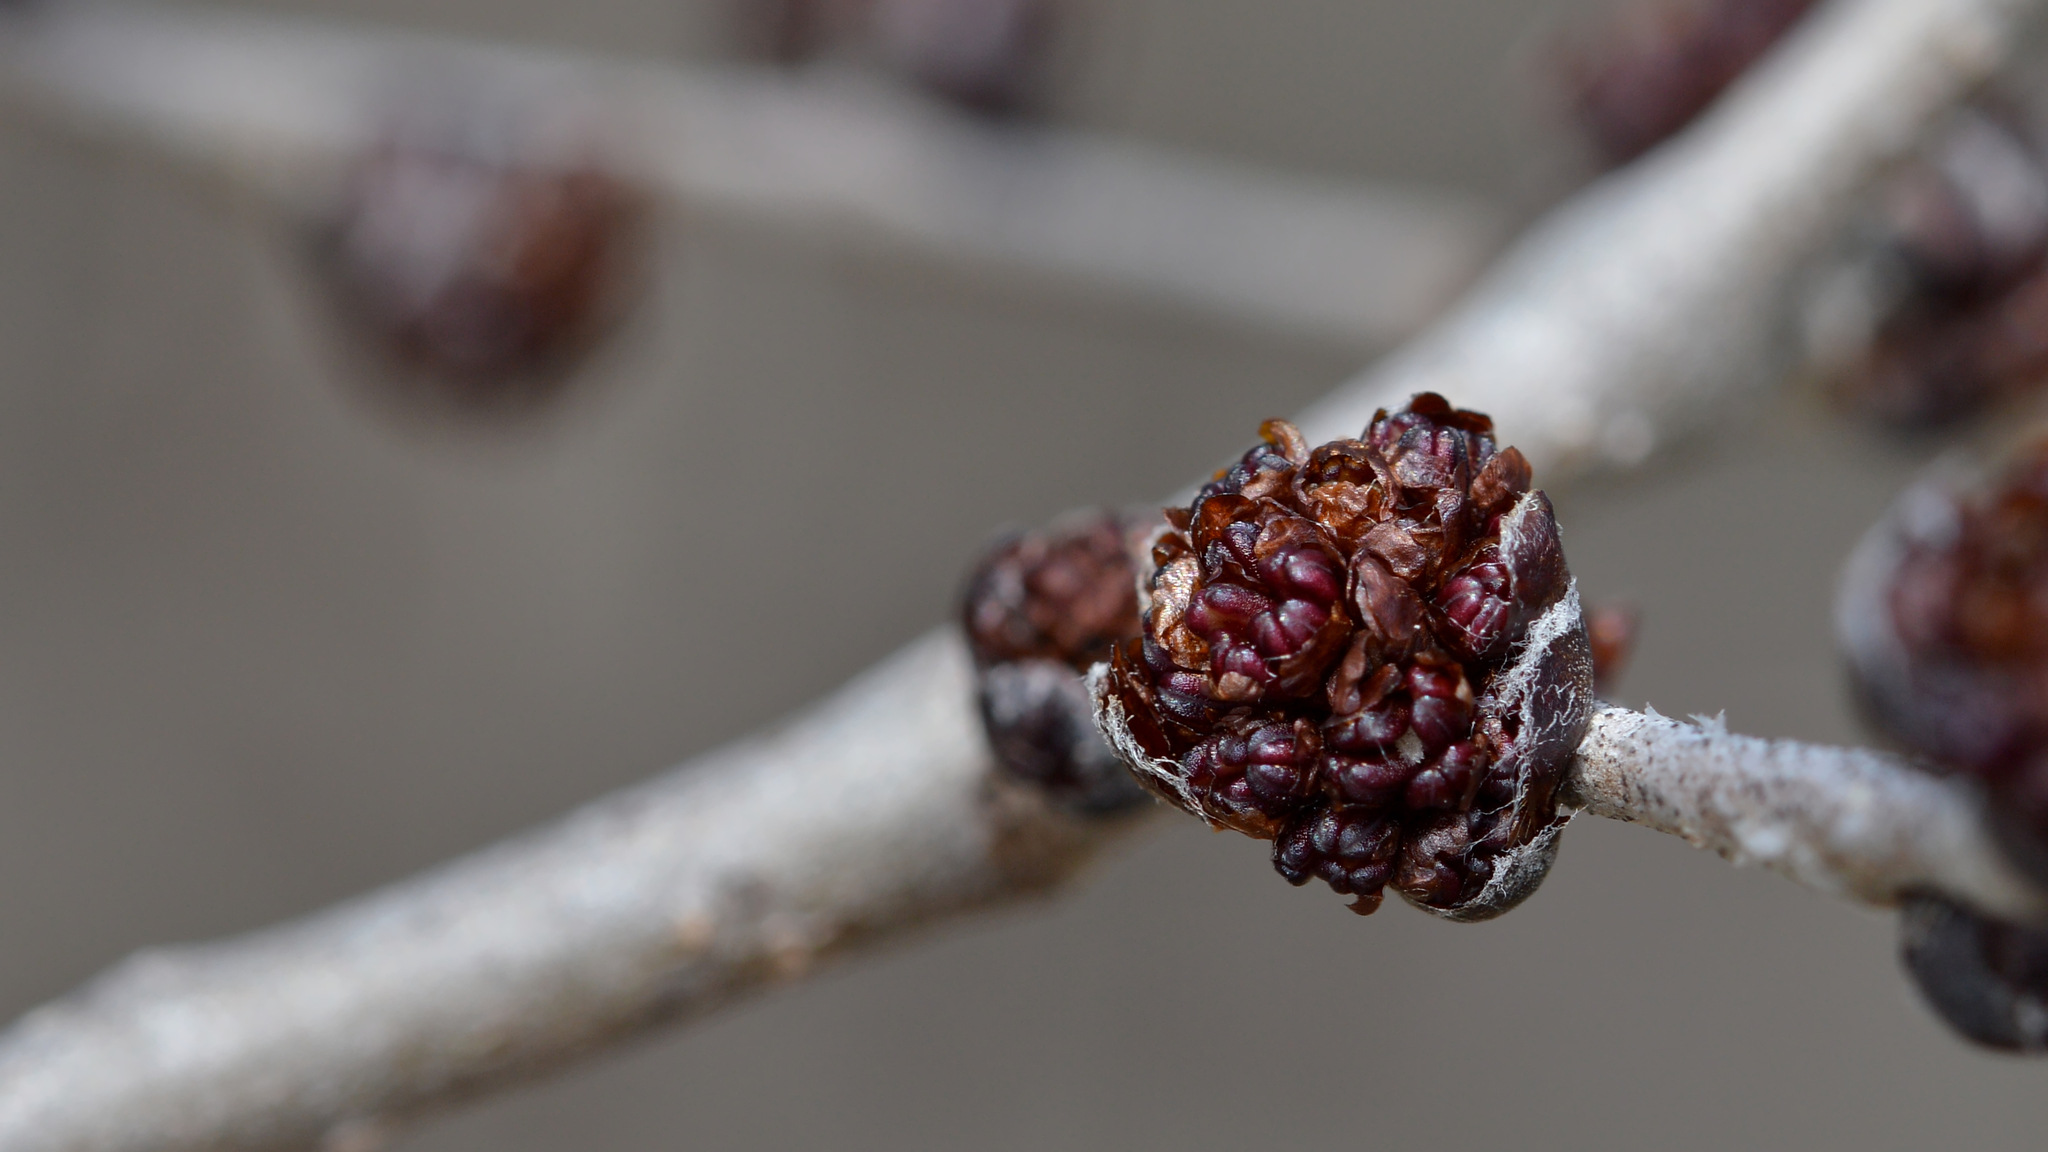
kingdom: Plantae
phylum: Tracheophyta
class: Magnoliopsida
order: Rosales
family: Ulmaceae
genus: Ulmus
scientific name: Ulmus pumila
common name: Siberian elm
